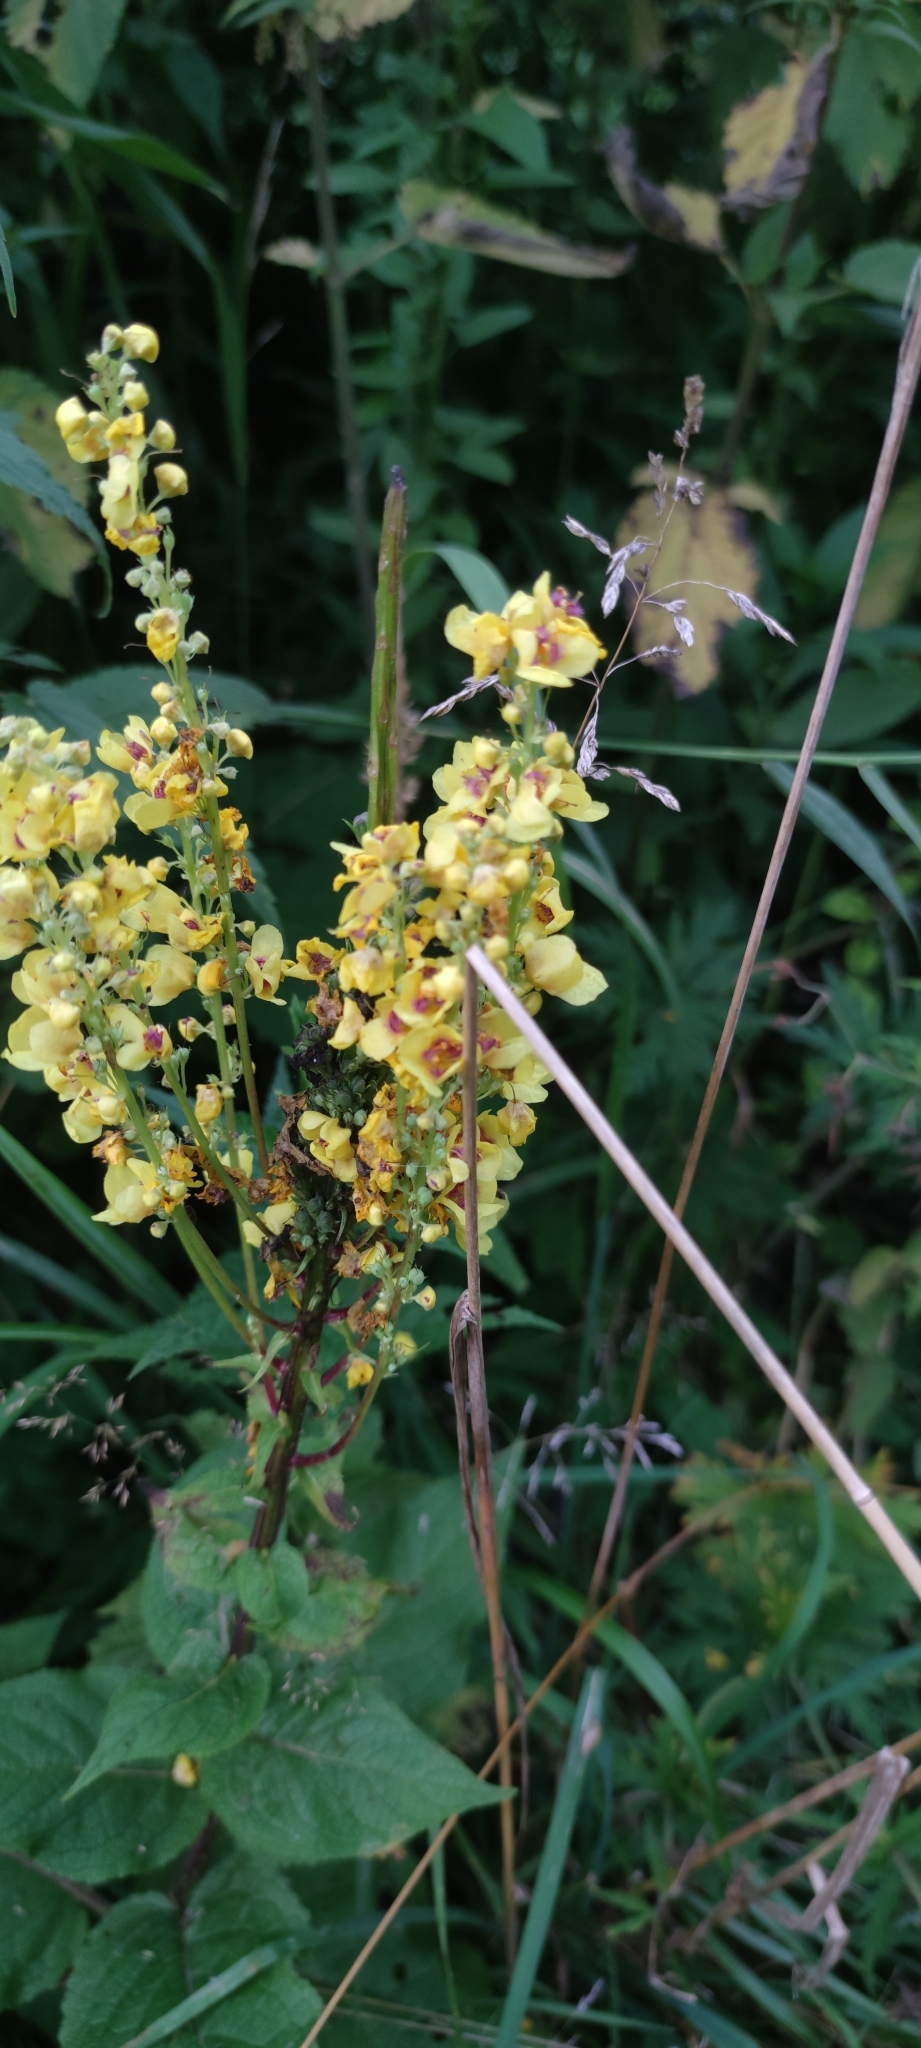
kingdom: Plantae
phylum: Tracheophyta
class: Magnoliopsida
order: Lamiales
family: Scrophulariaceae
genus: Verbascum
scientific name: Verbascum nigrum
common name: Dark mullein
